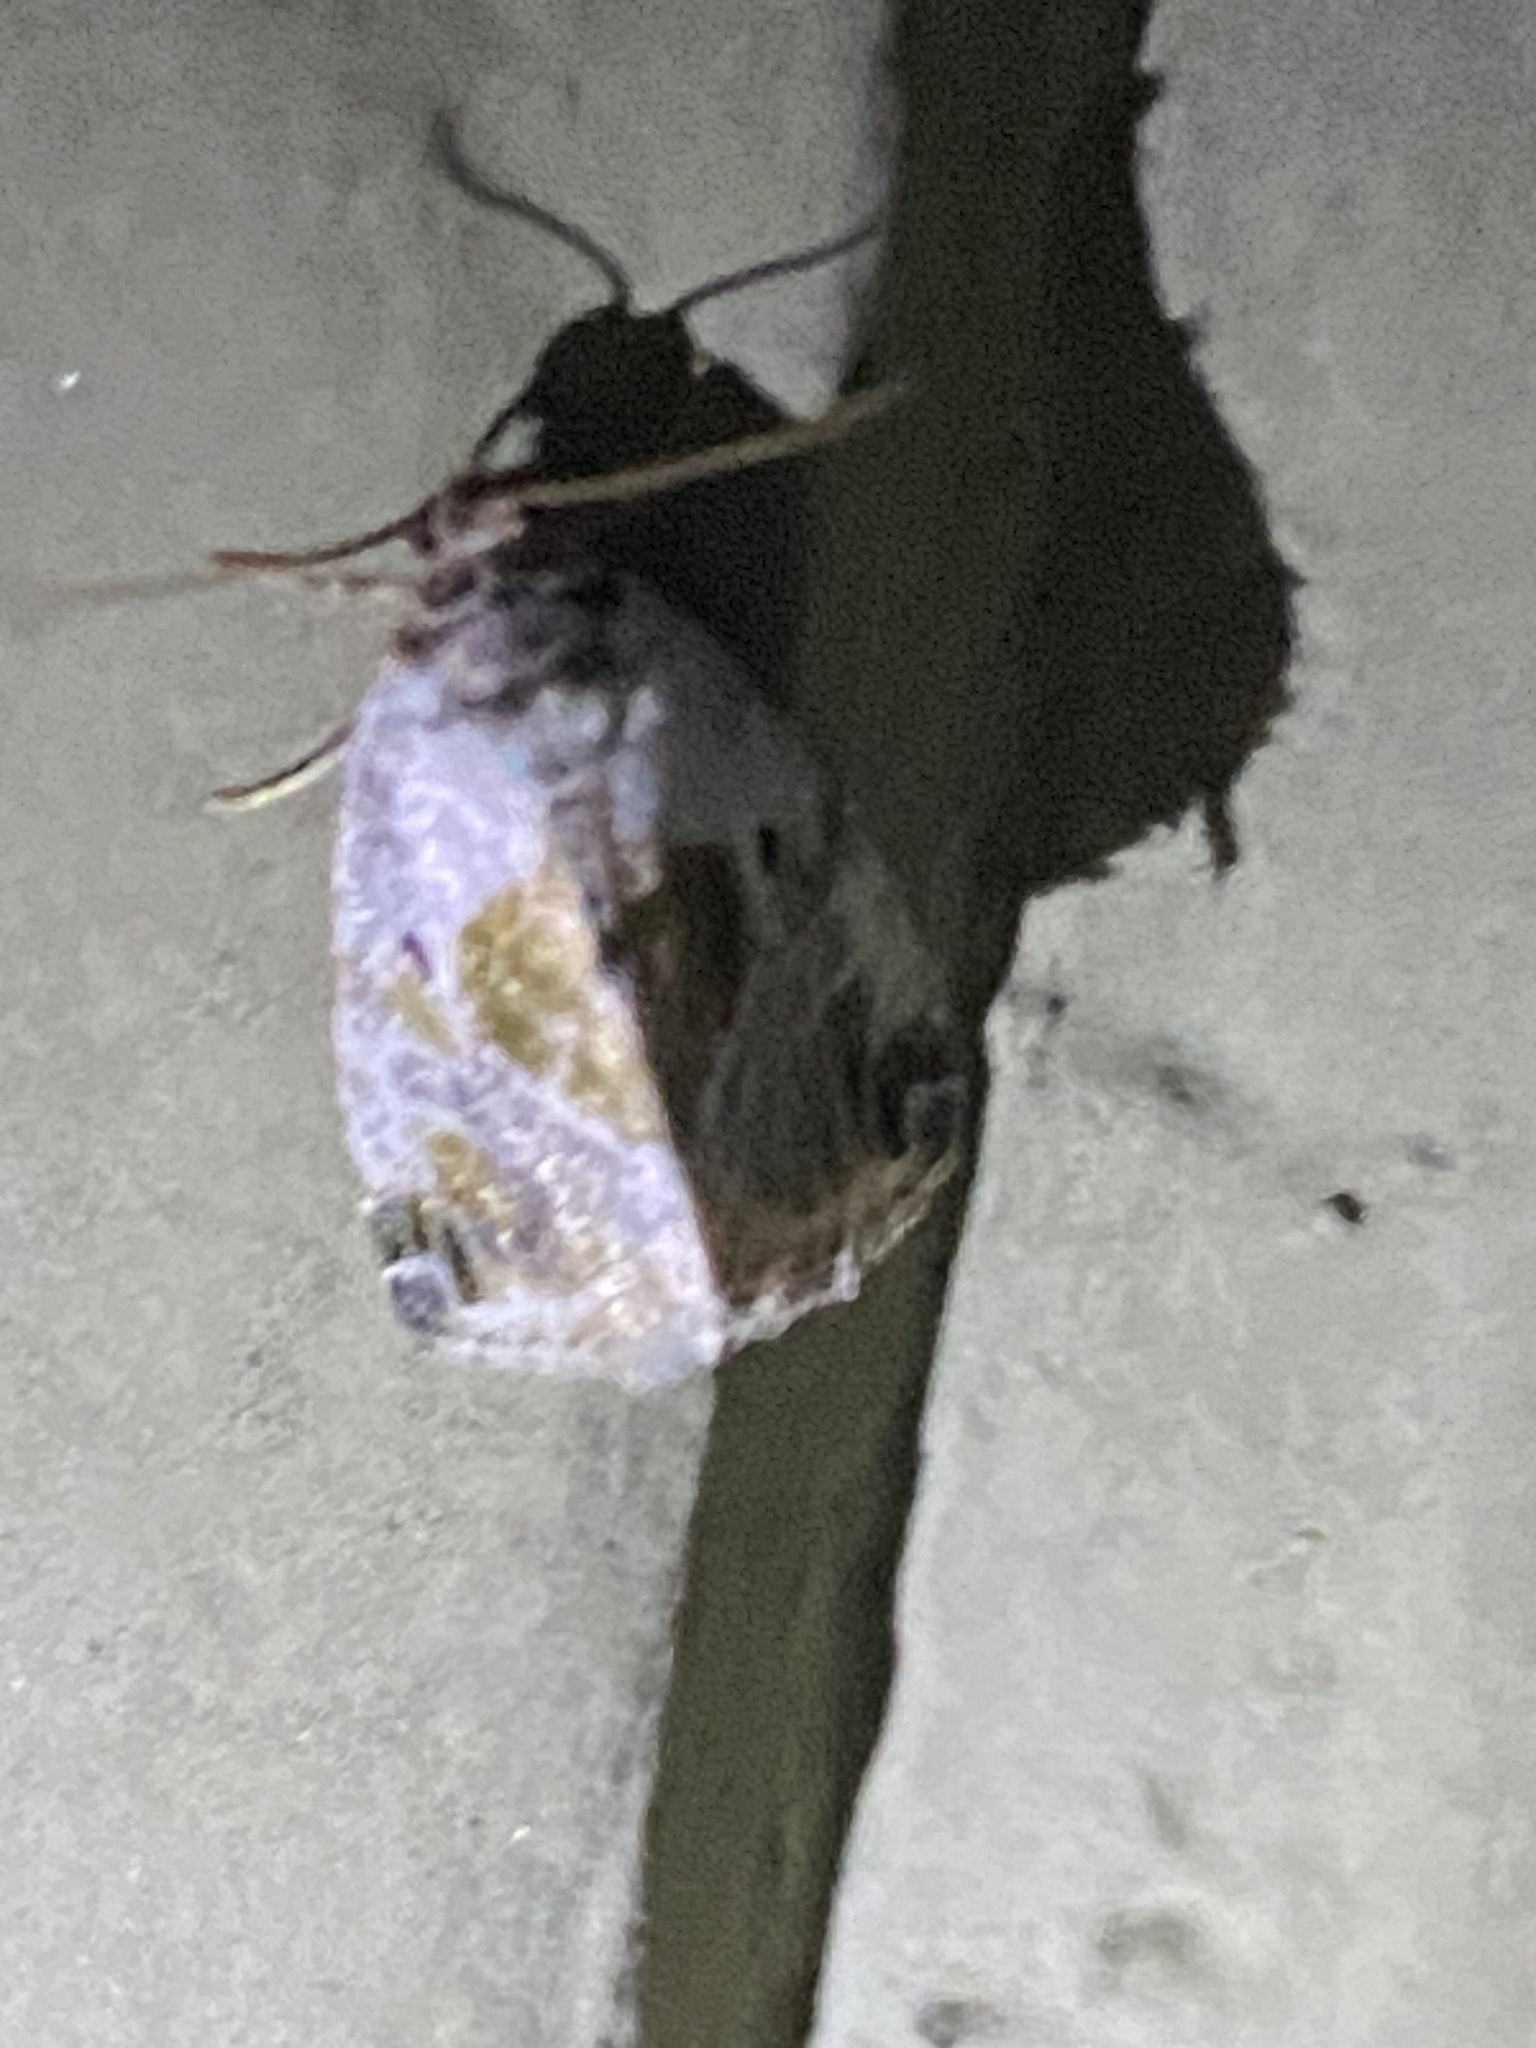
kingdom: Animalia
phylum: Arthropoda
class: Insecta
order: Lepidoptera
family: Noctuidae
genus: Maliattha
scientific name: Maliattha synochitis
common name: Black-dotted glyph
